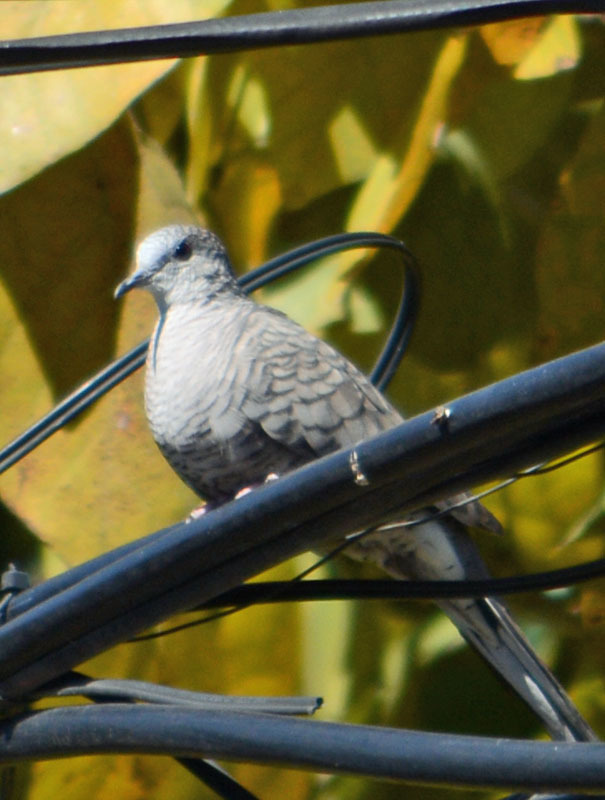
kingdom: Animalia
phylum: Chordata
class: Aves
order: Columbiformes
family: Columbidae
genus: Columbina
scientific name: Columbina inca
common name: Inca dove
